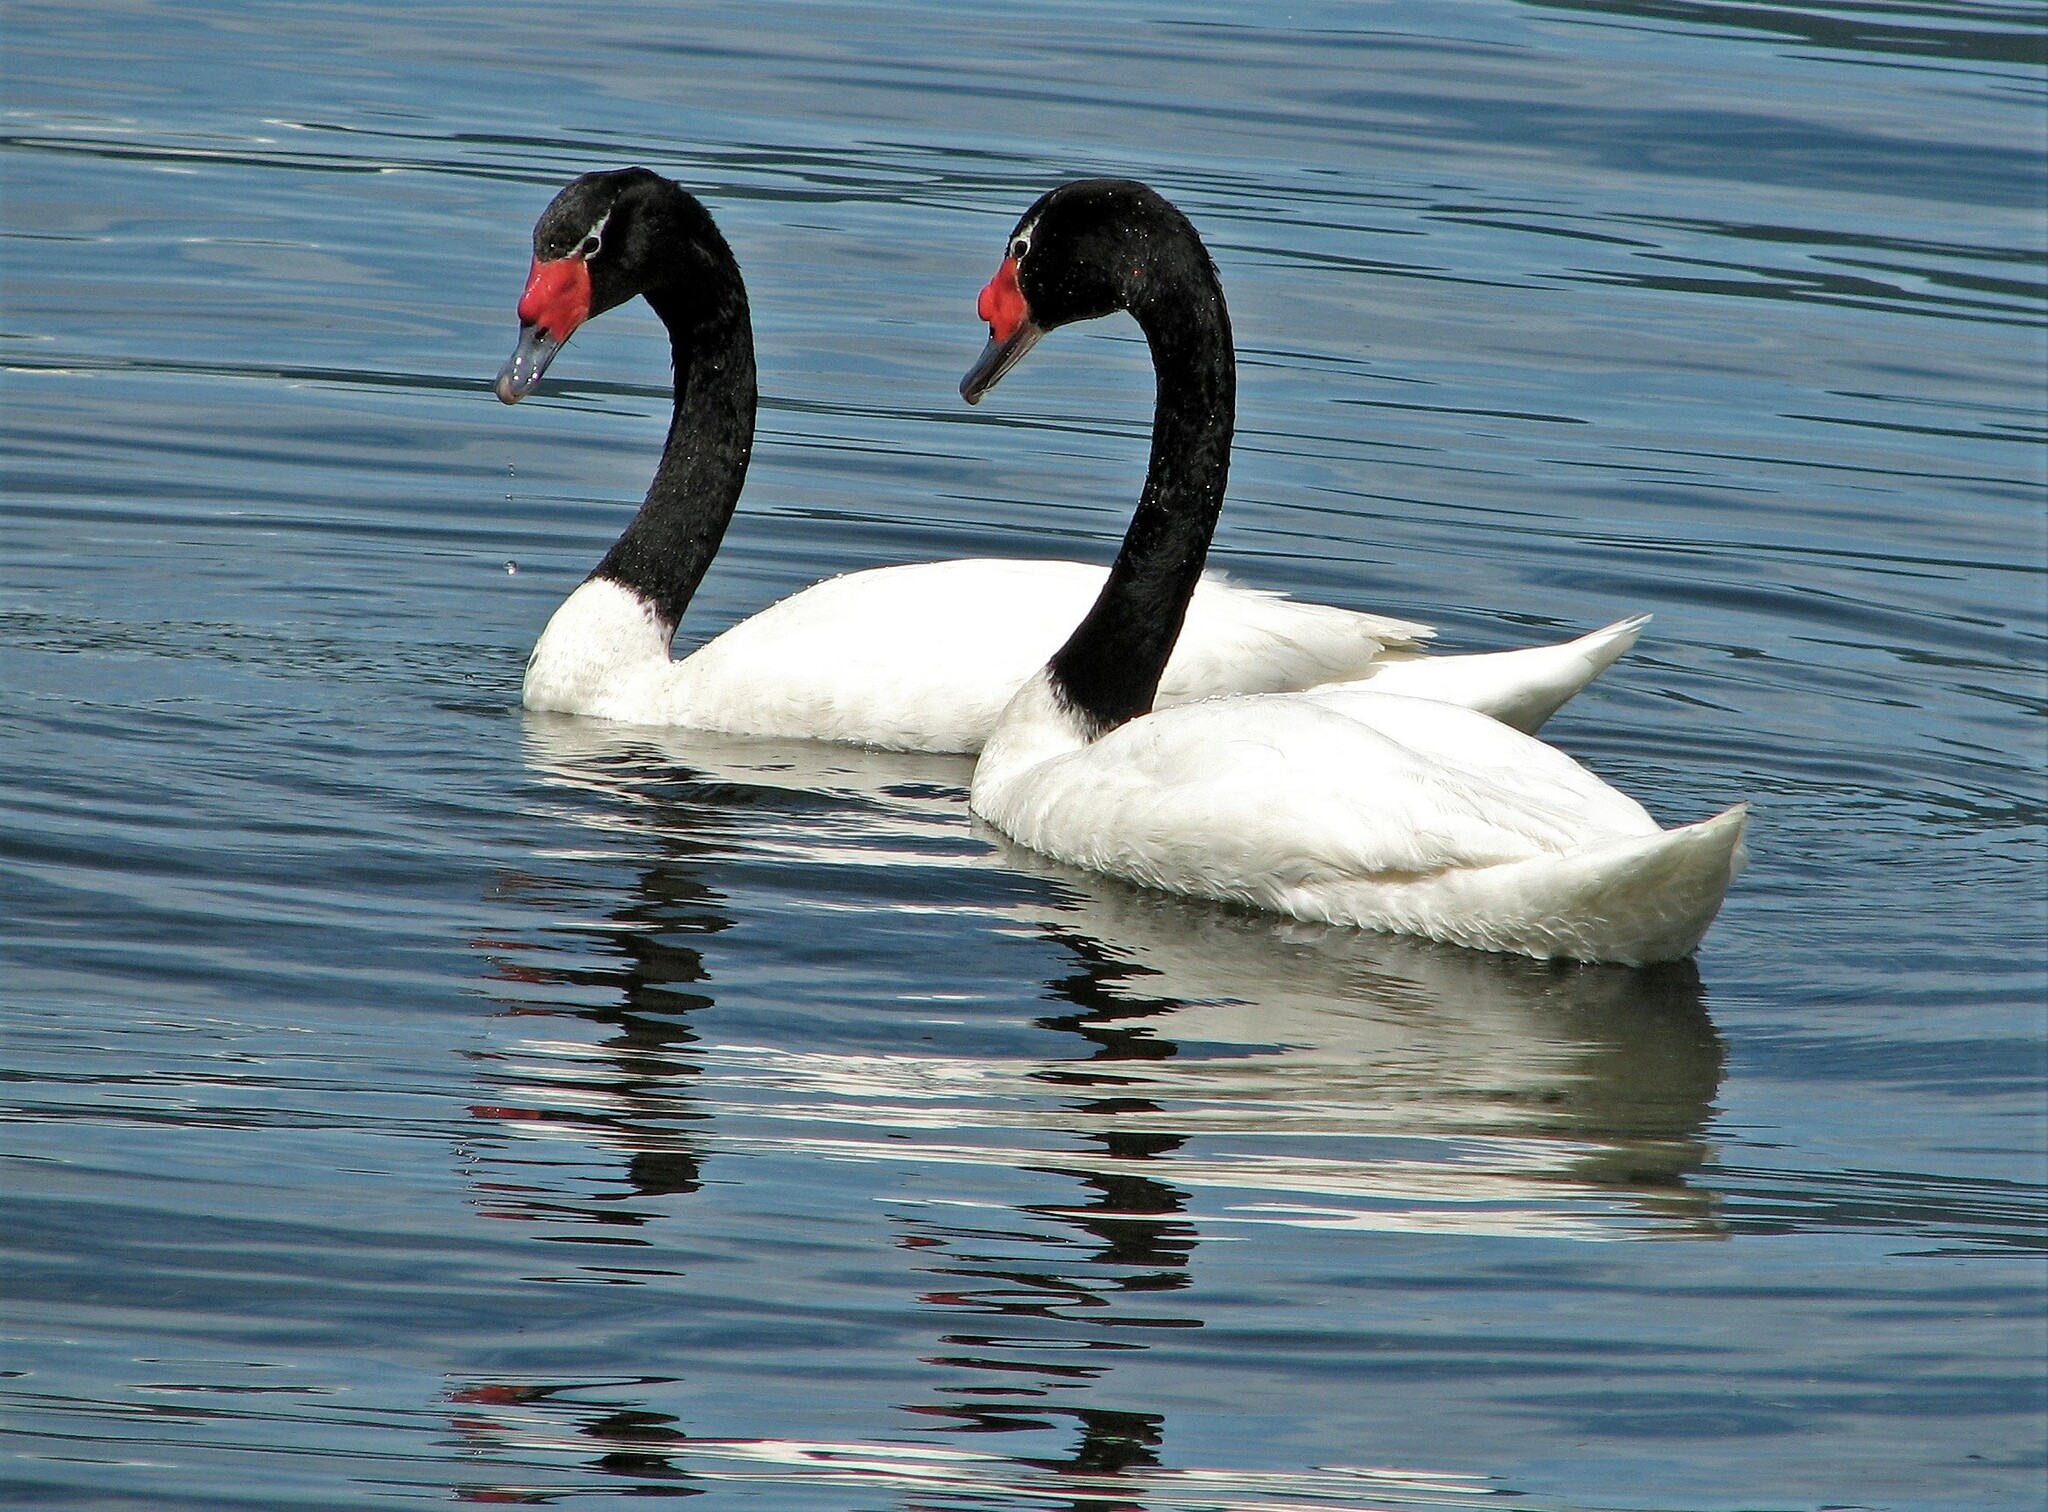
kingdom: Animalia
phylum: Chordata
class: Aves
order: Anseriformes
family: Anatidae
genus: Cygnus
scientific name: Cygnus melancoryphus
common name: Black-necked swan
